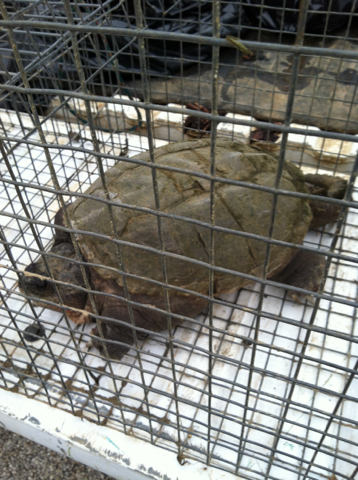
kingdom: Animalia
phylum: Chordata
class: Testudines
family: Chelydridae
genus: Chelydra
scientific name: Chelydra serpentina
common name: Common snapping turtle
